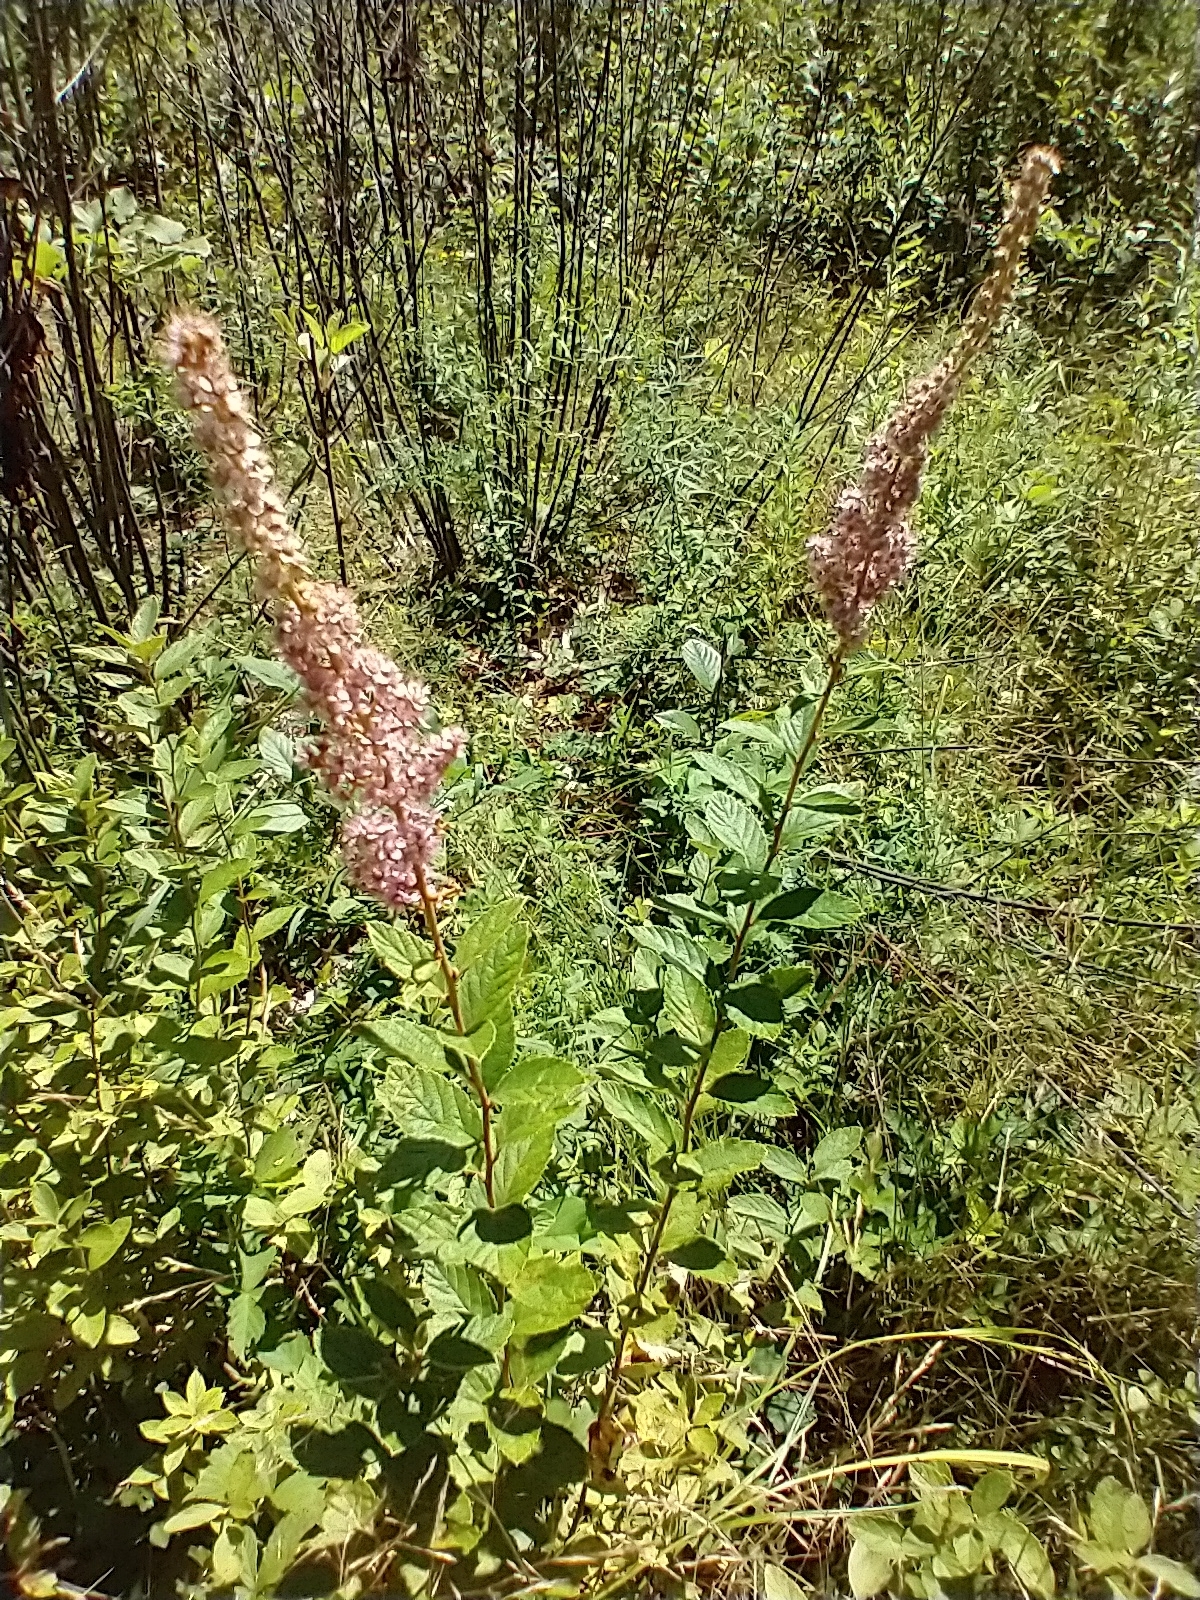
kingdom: Plantae
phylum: Tracheophyta
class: Magnoliopsida
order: Rosales
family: Rosaceae
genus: Spiraea
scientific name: Spiraea tomentosa
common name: Hardhack
